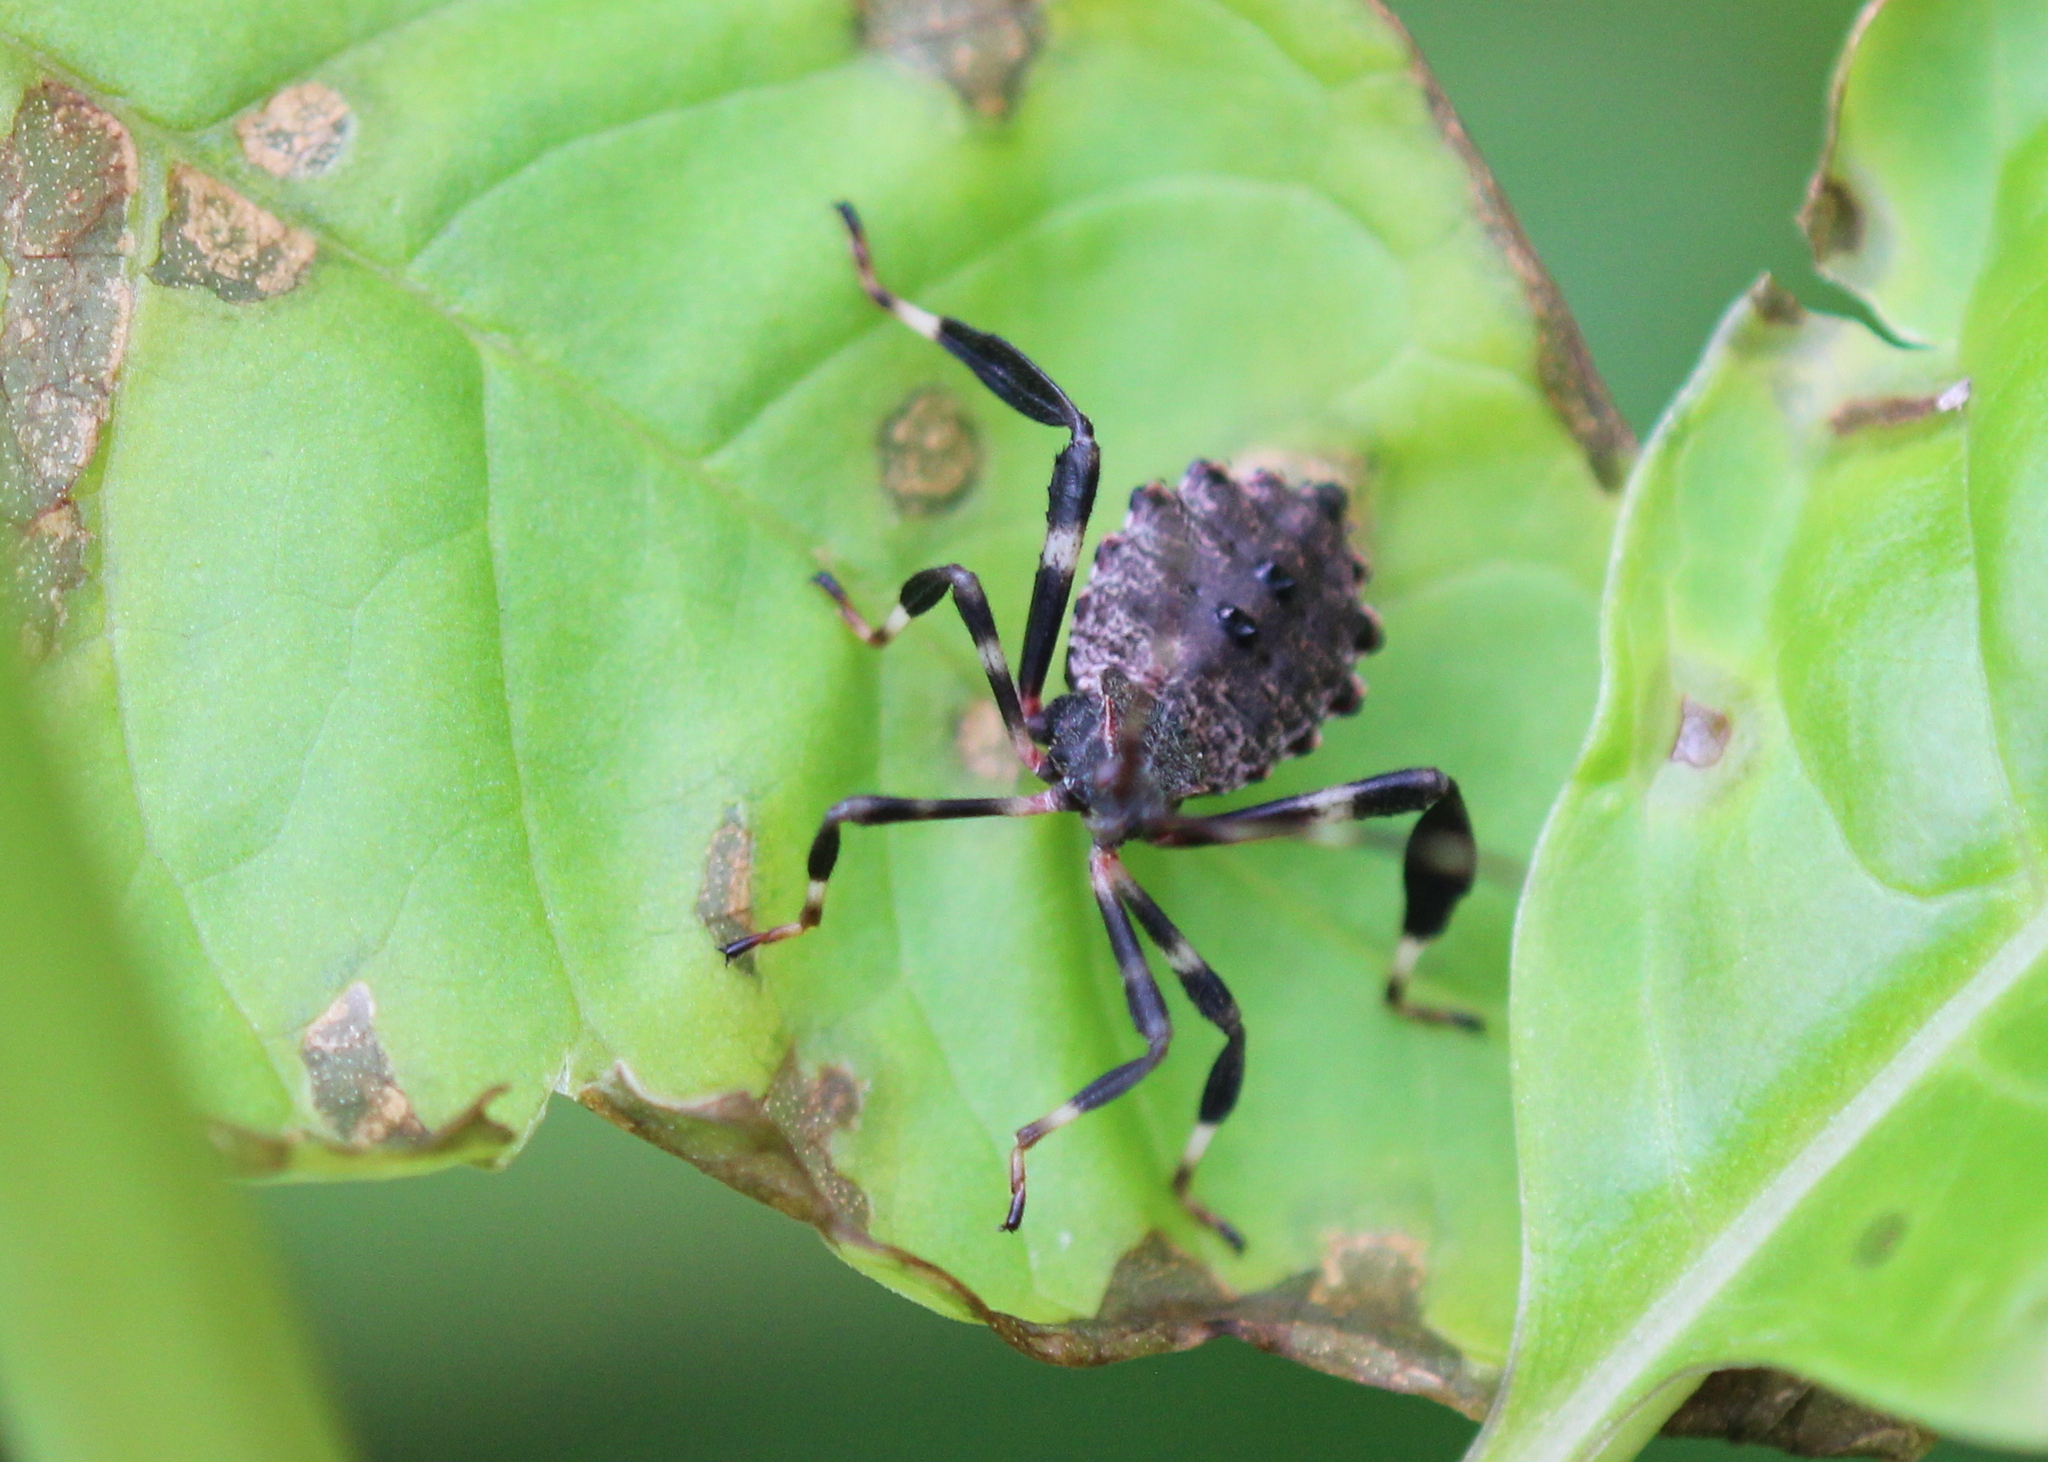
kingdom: Animalia
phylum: Arthropoda
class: Insecta
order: Hemiptera
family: Coreidae
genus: Acanthocephala
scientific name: Acanthocephala terminalis
